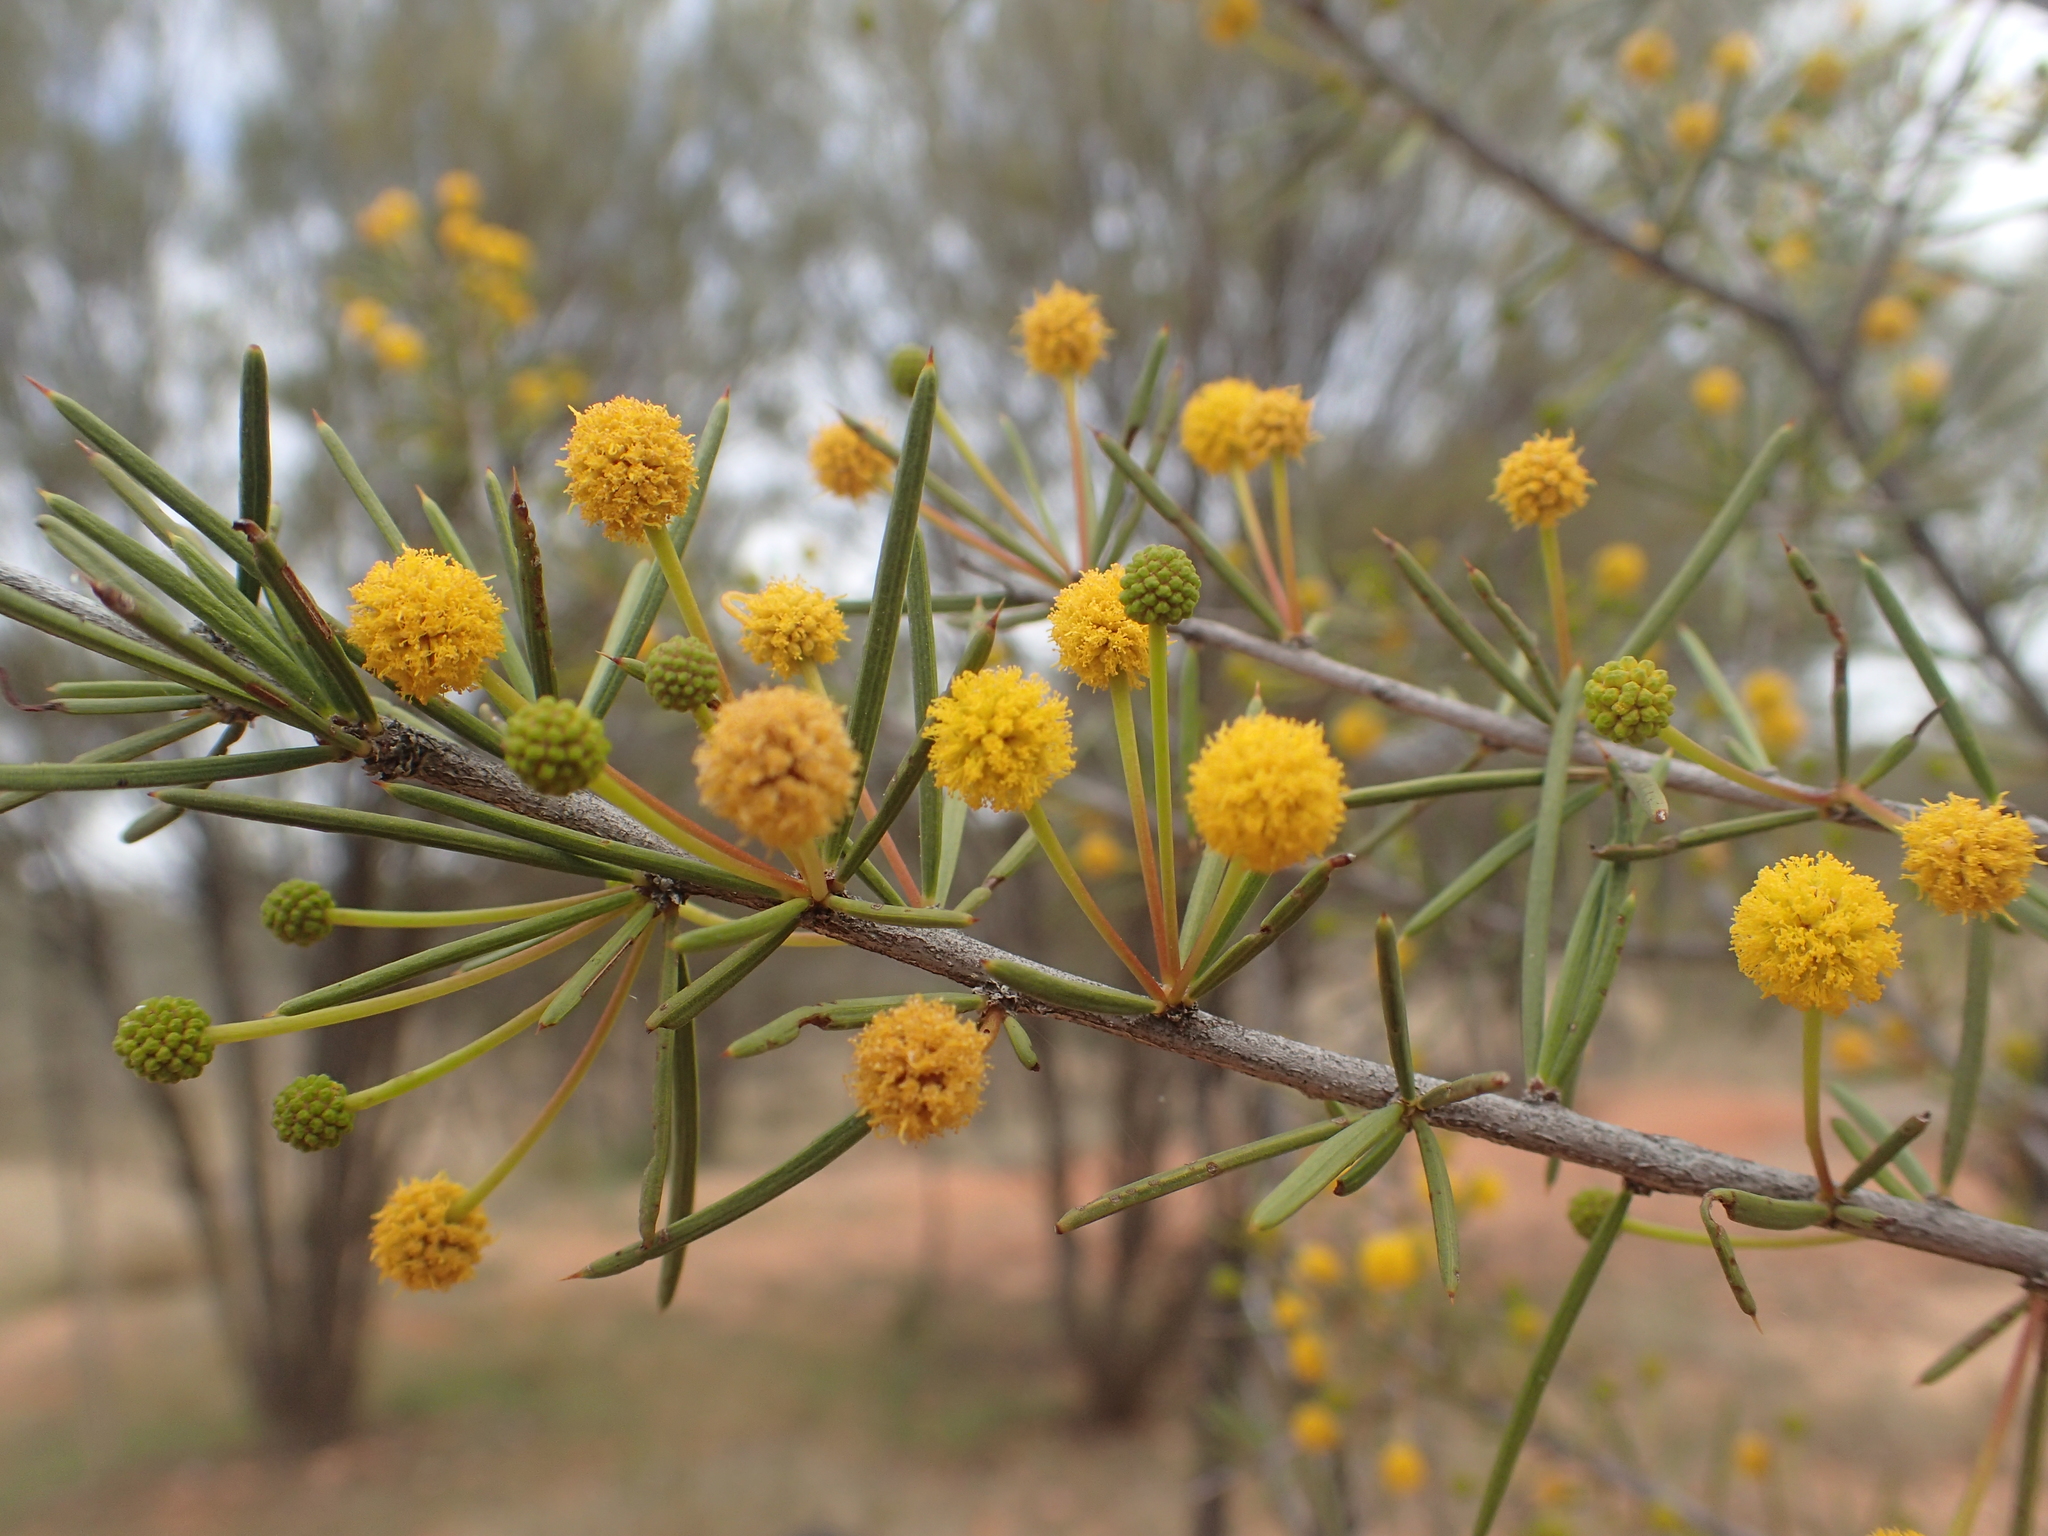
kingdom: Plantae
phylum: Tracheophyta
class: Magnoliopsida
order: Fabales
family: Fabaceae
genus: Acacia
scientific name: Acacia tetragonophylla
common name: Dead finish
